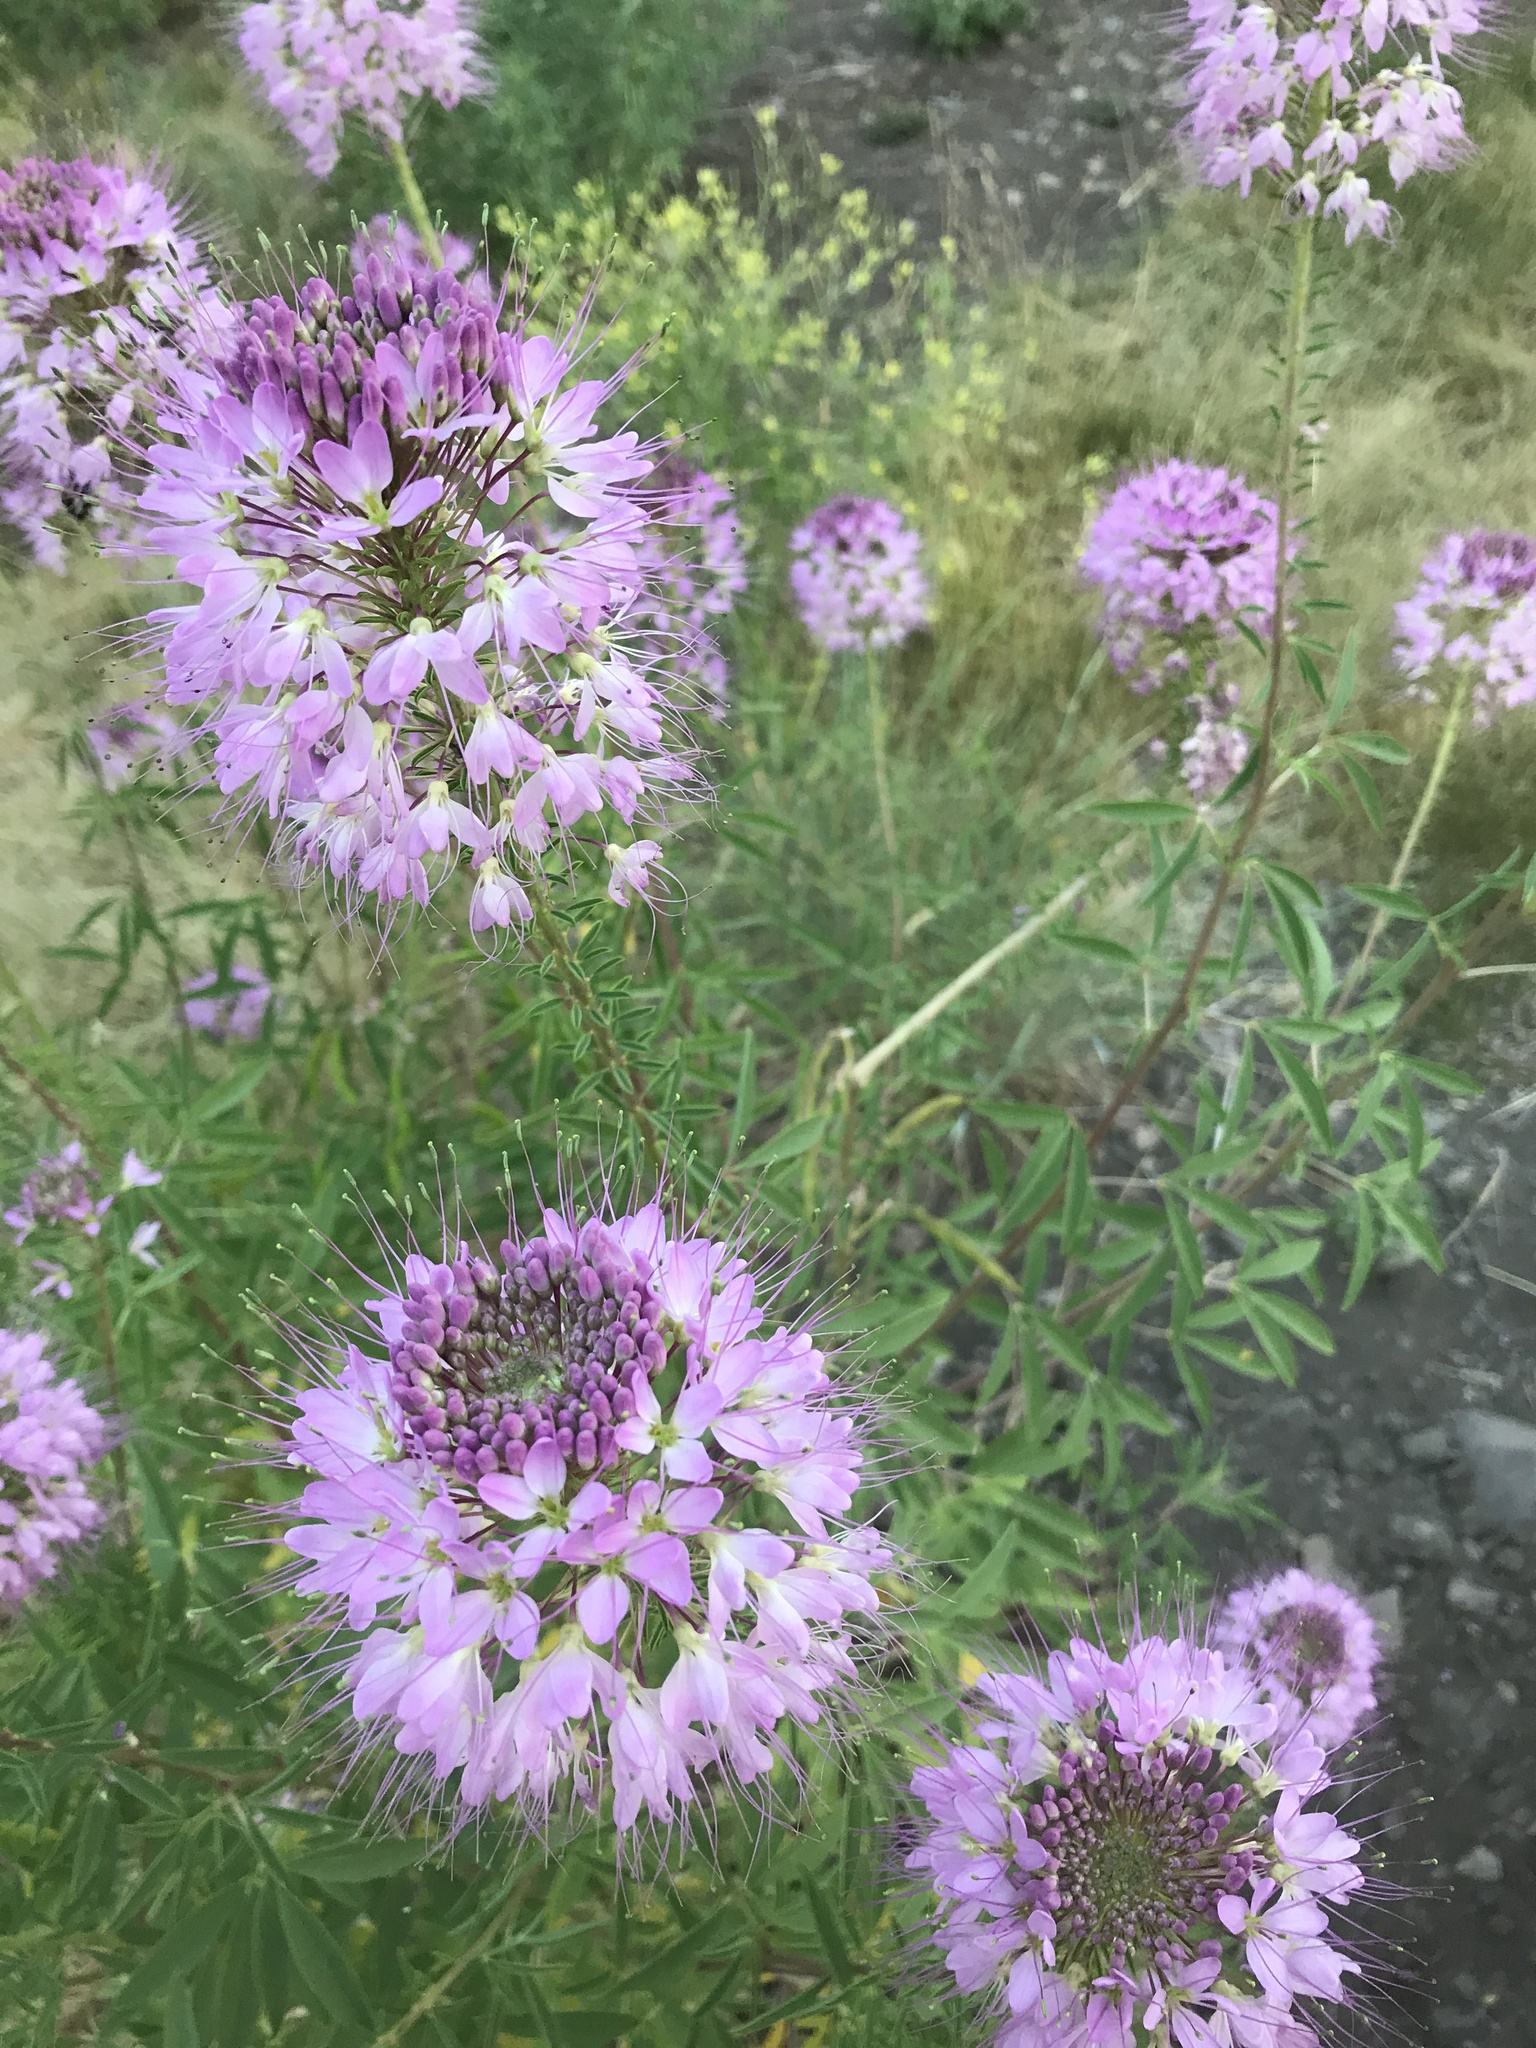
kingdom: Plantae
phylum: Tracheophyta
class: Magnoliopsida
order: Brassicales
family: Cleomaceae
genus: Cleomella
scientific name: Cleomella serrulata
